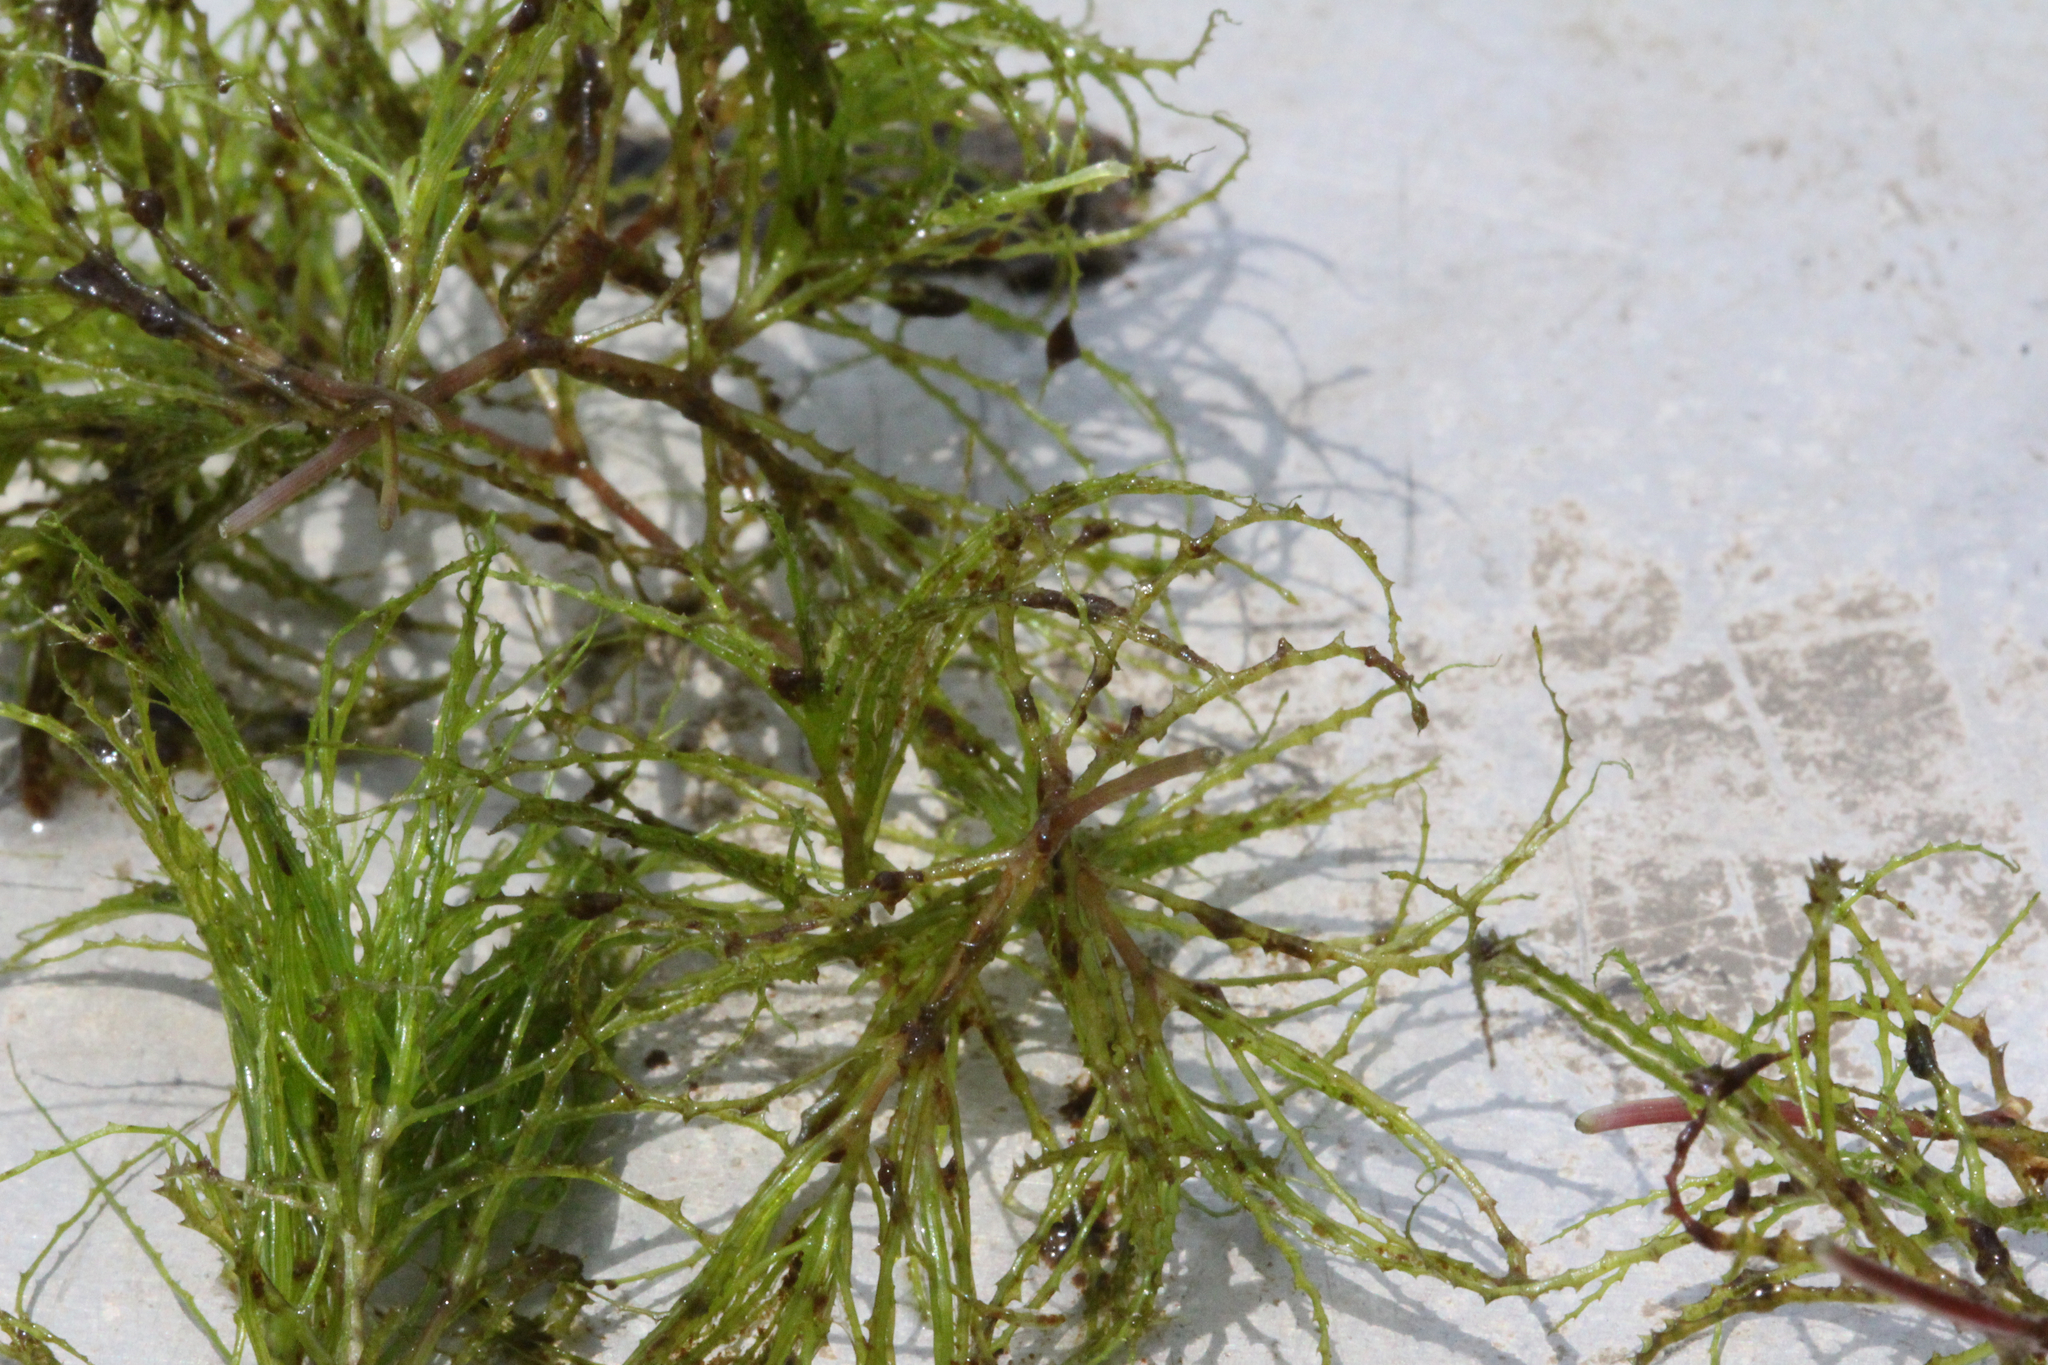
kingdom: Plantae
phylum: Tracheophyta
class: Liliopsida
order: Alismatales
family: Hydrocharitaceae
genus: Najas
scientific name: Najas minor
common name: Brittle naiad
